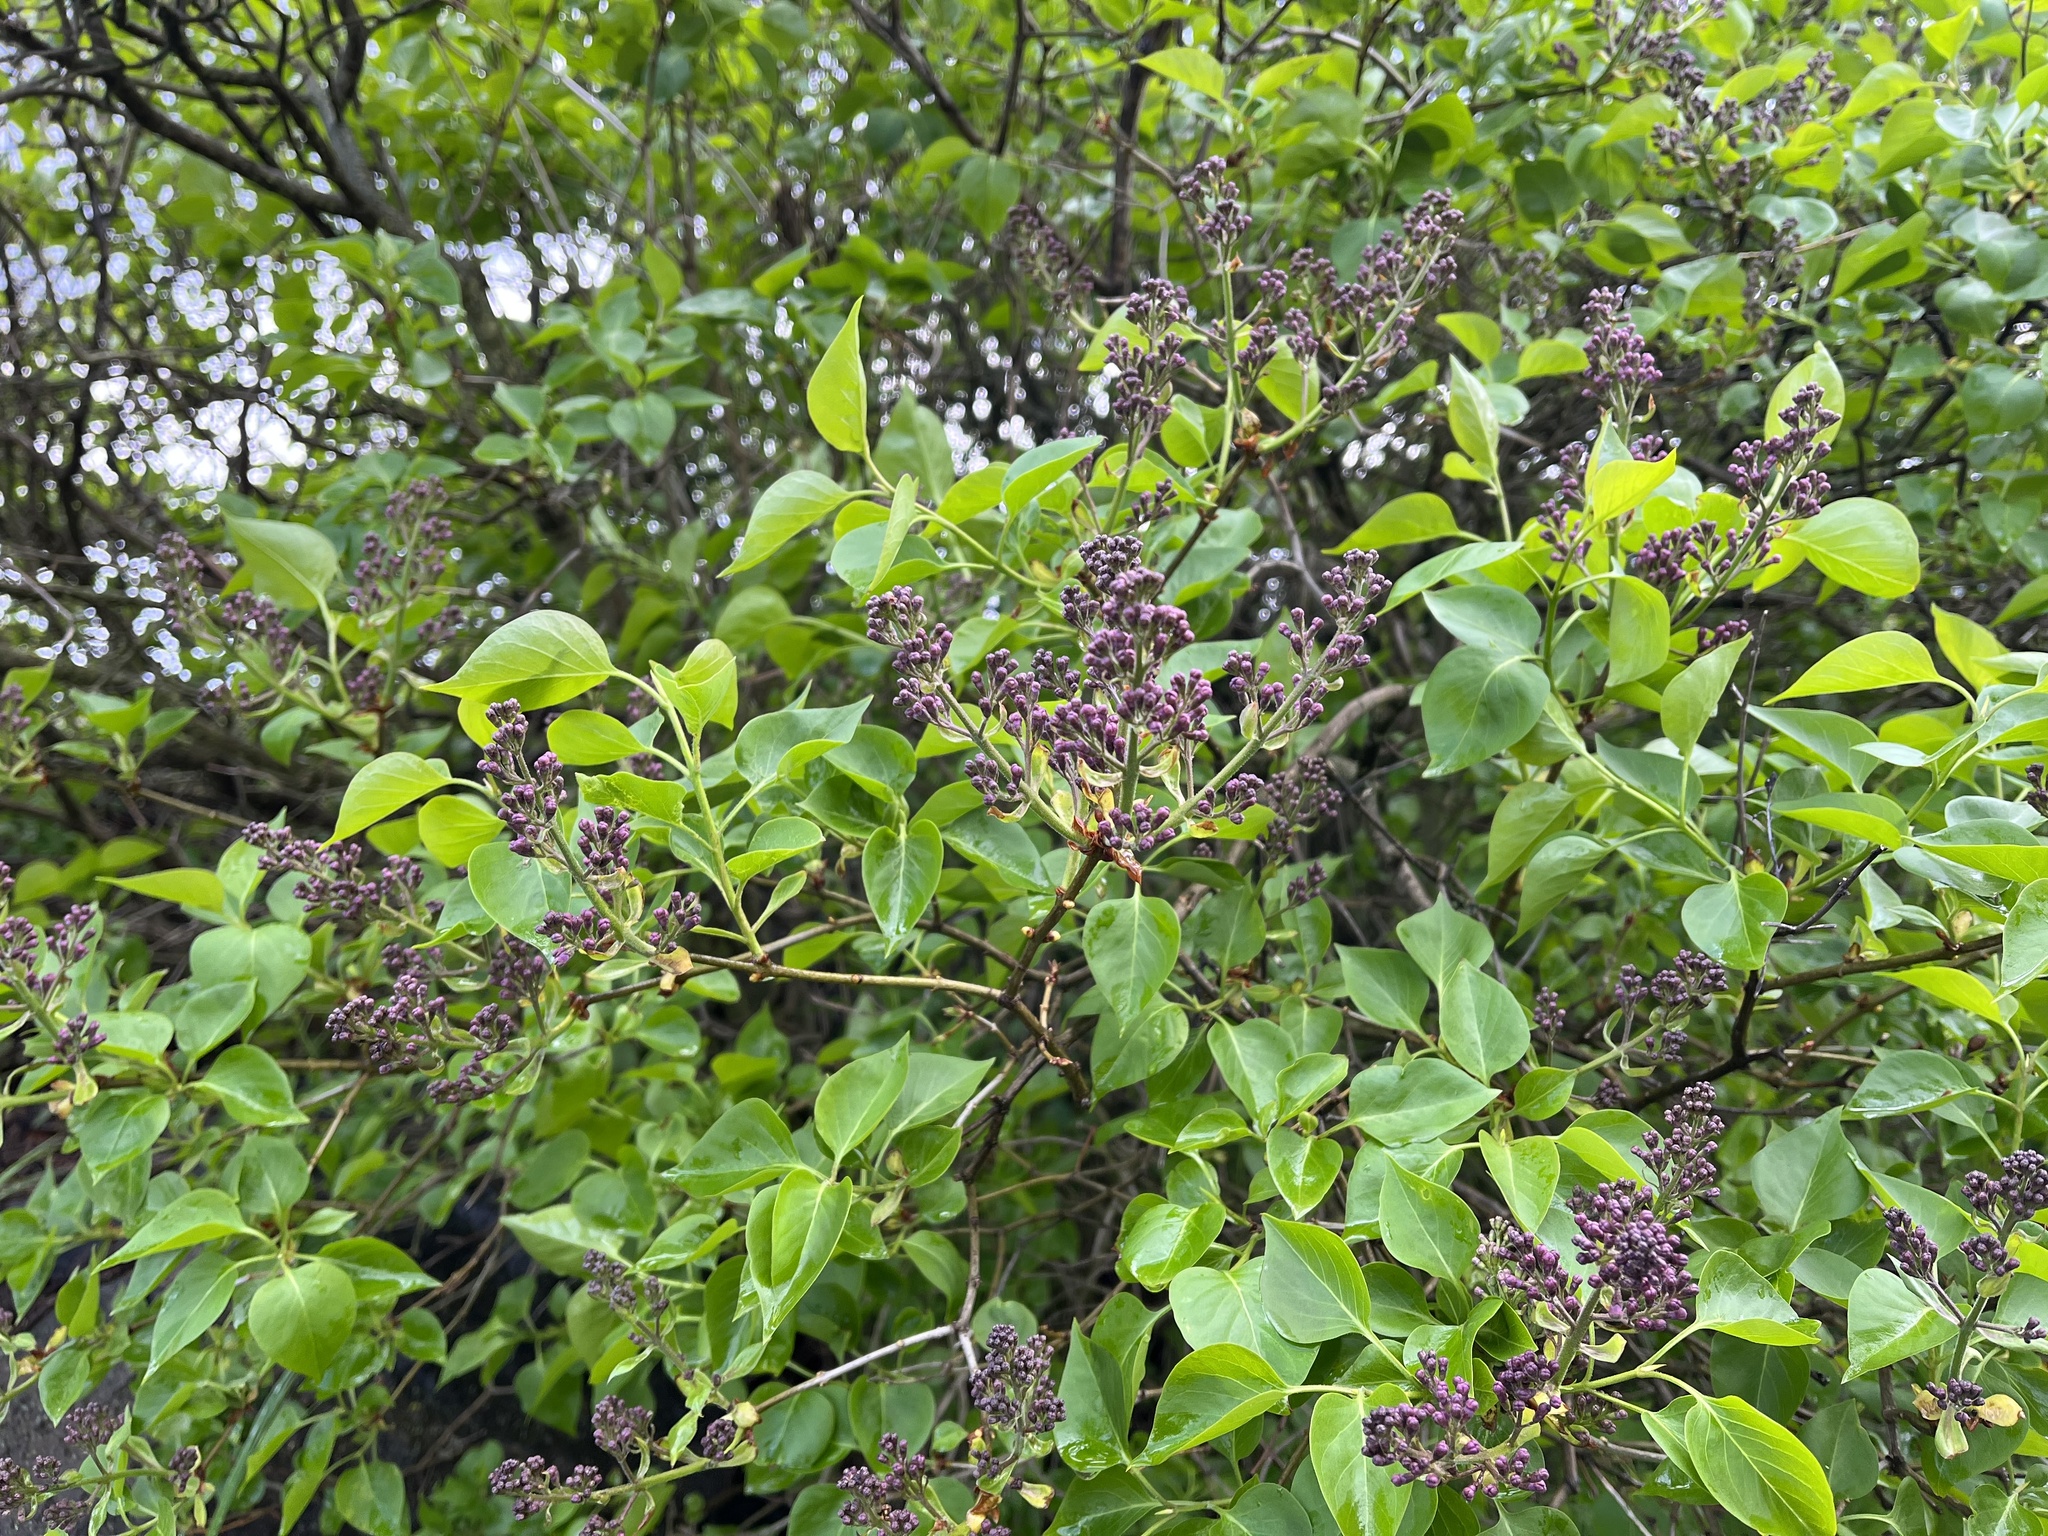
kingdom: Plantae
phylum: Tracheophyta
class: Magnoliopsida
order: Lamiales
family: Oleaceae
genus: Syringa
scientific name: Syringa vulgaris
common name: Common lilac
